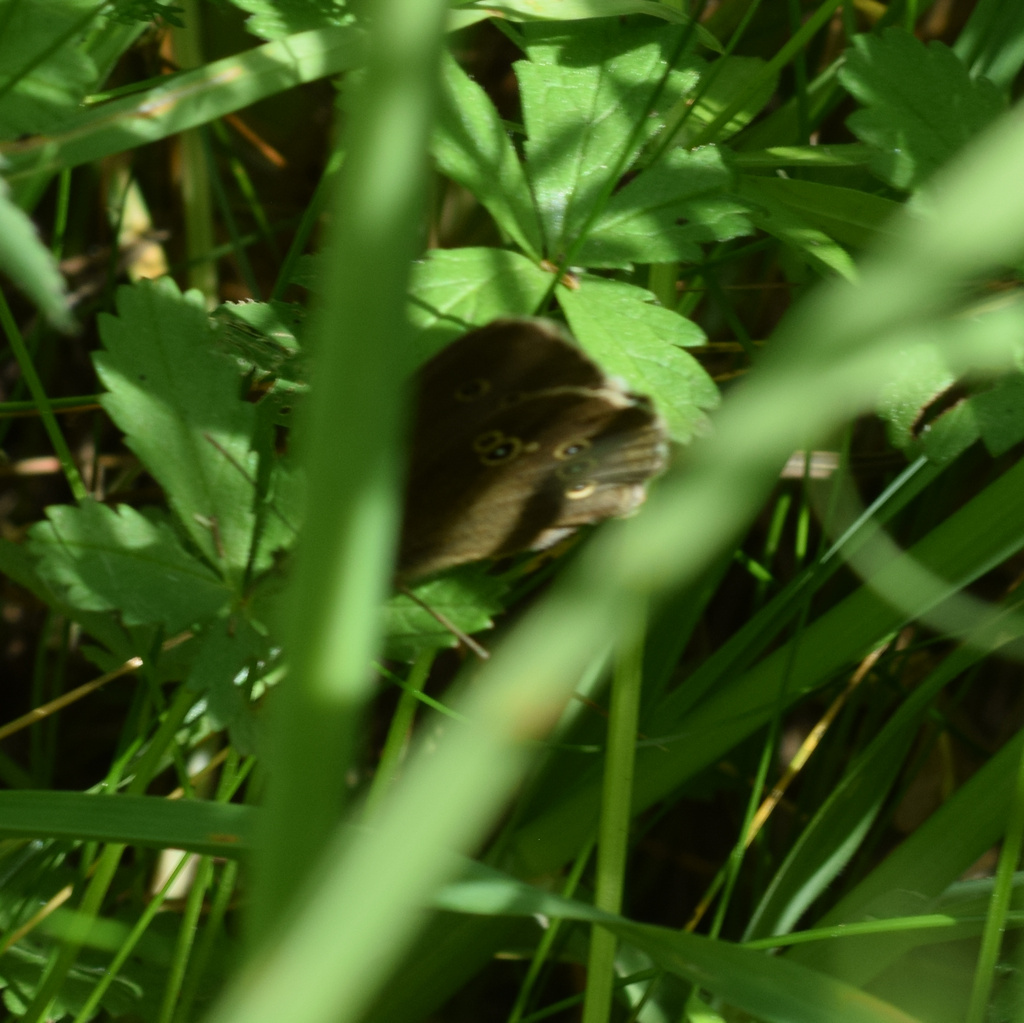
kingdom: Animalia
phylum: Arthropoda
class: Insecta
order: Lepidoptera
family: Nymphalidae
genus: Aphantopus
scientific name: Aphantopus hyperantus
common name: Ringlet
